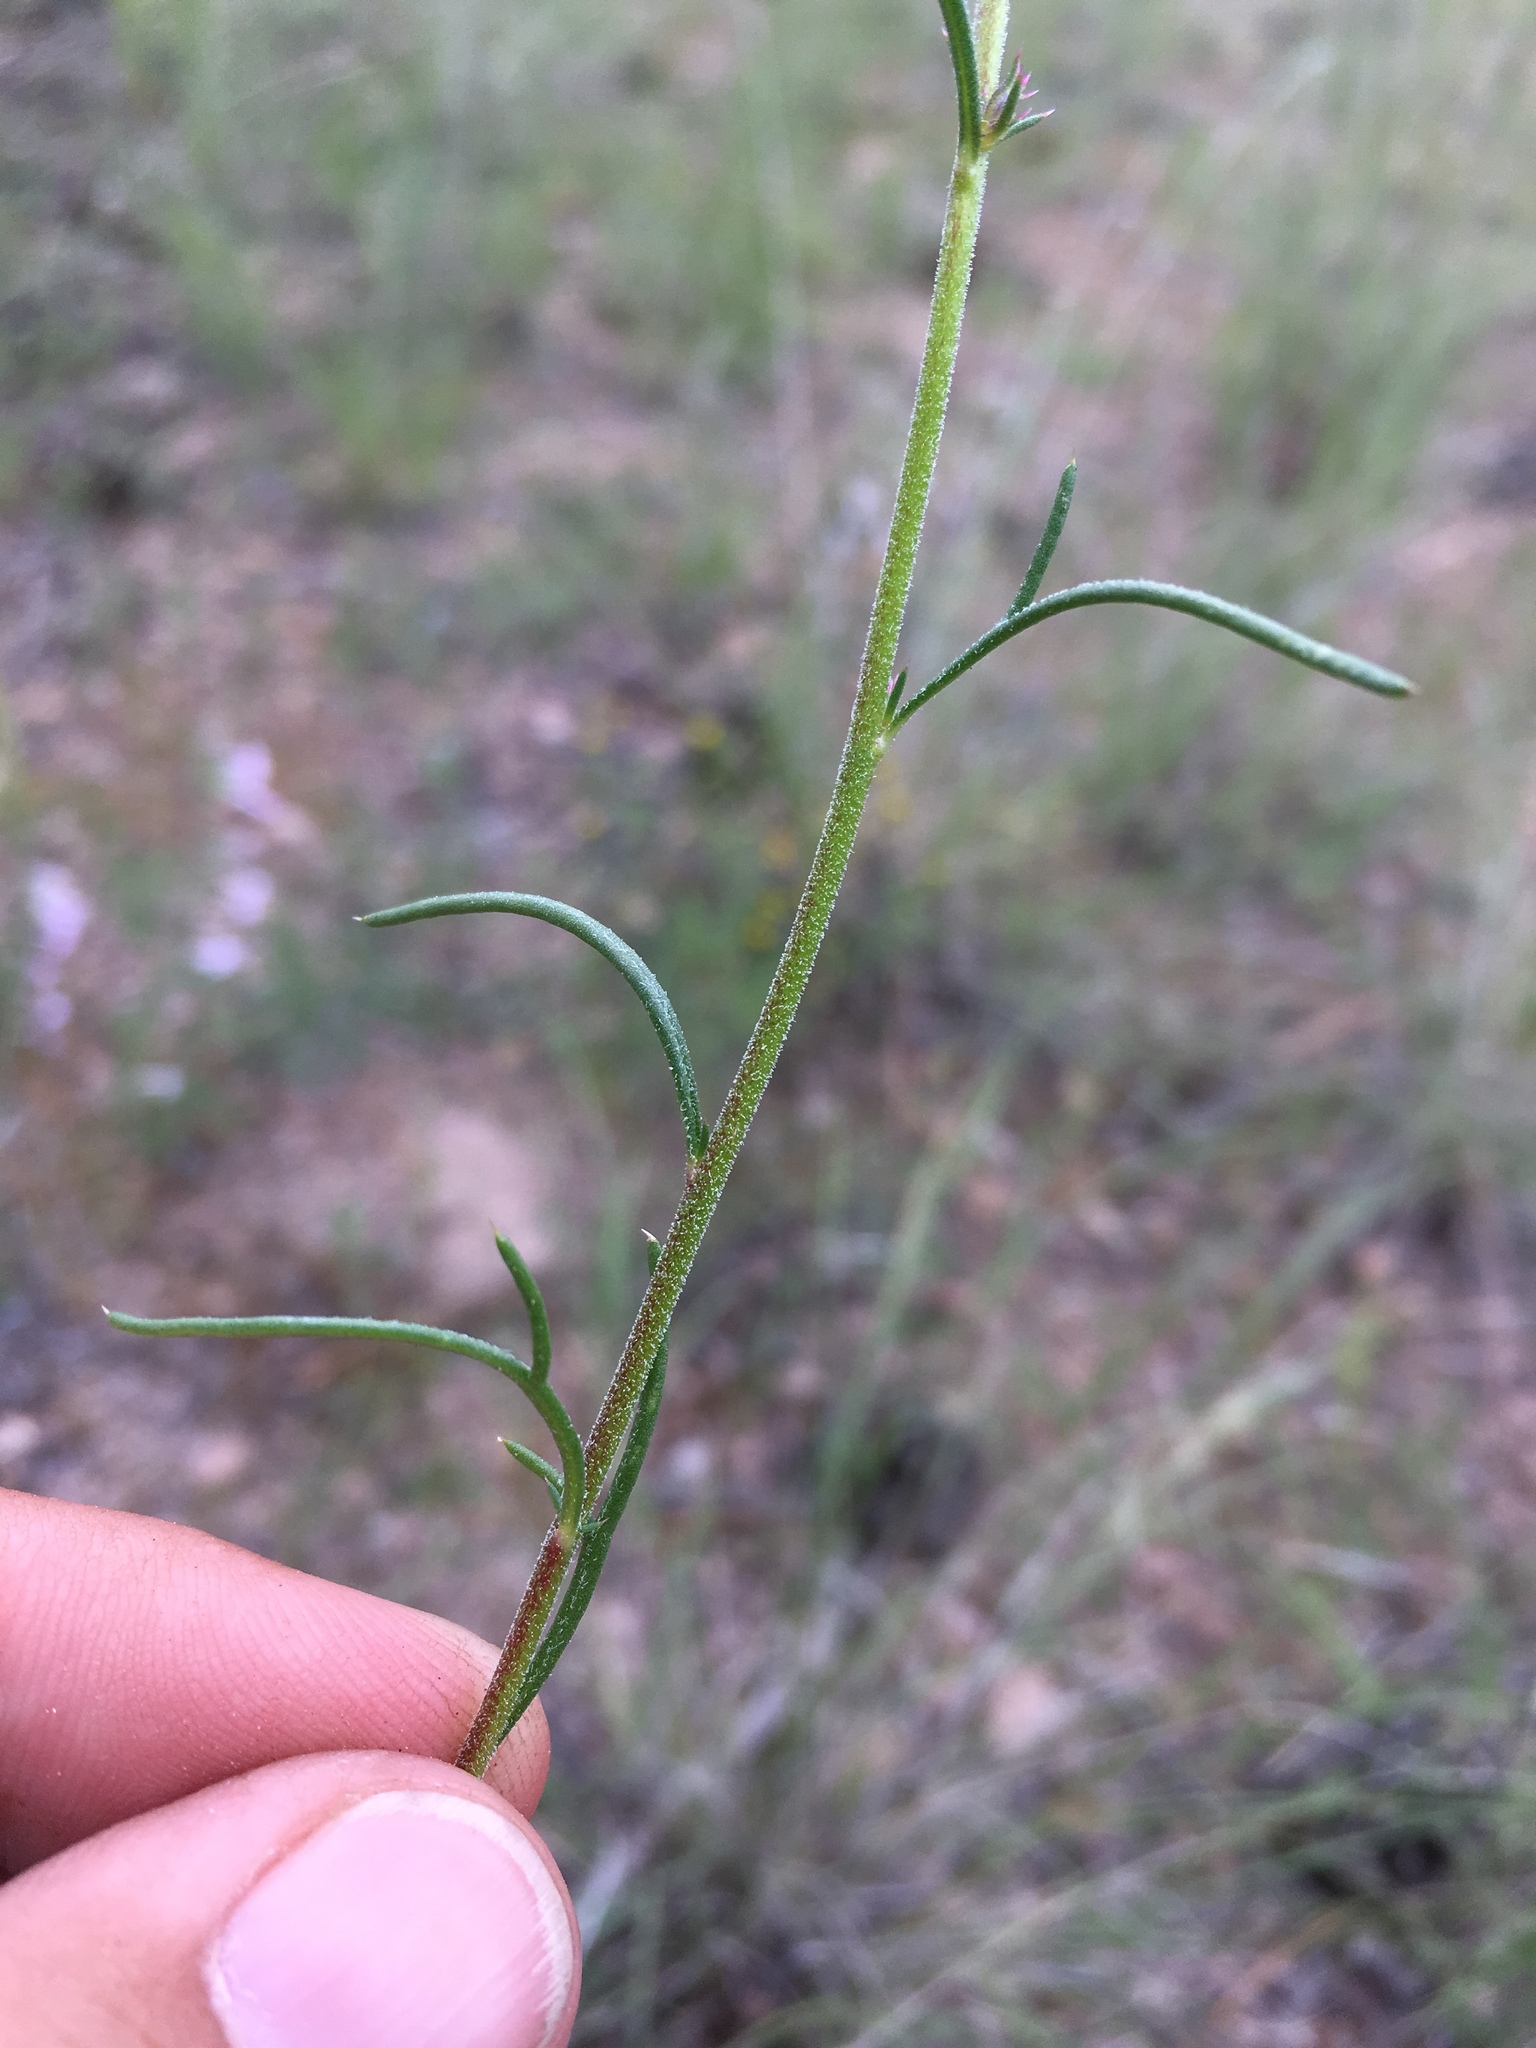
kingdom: Plantae
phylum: Tracheophyta
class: Magnoliopsida
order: Ericales
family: Polemoniaceae
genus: Ipomopsis
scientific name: Ipomopsis macombii
